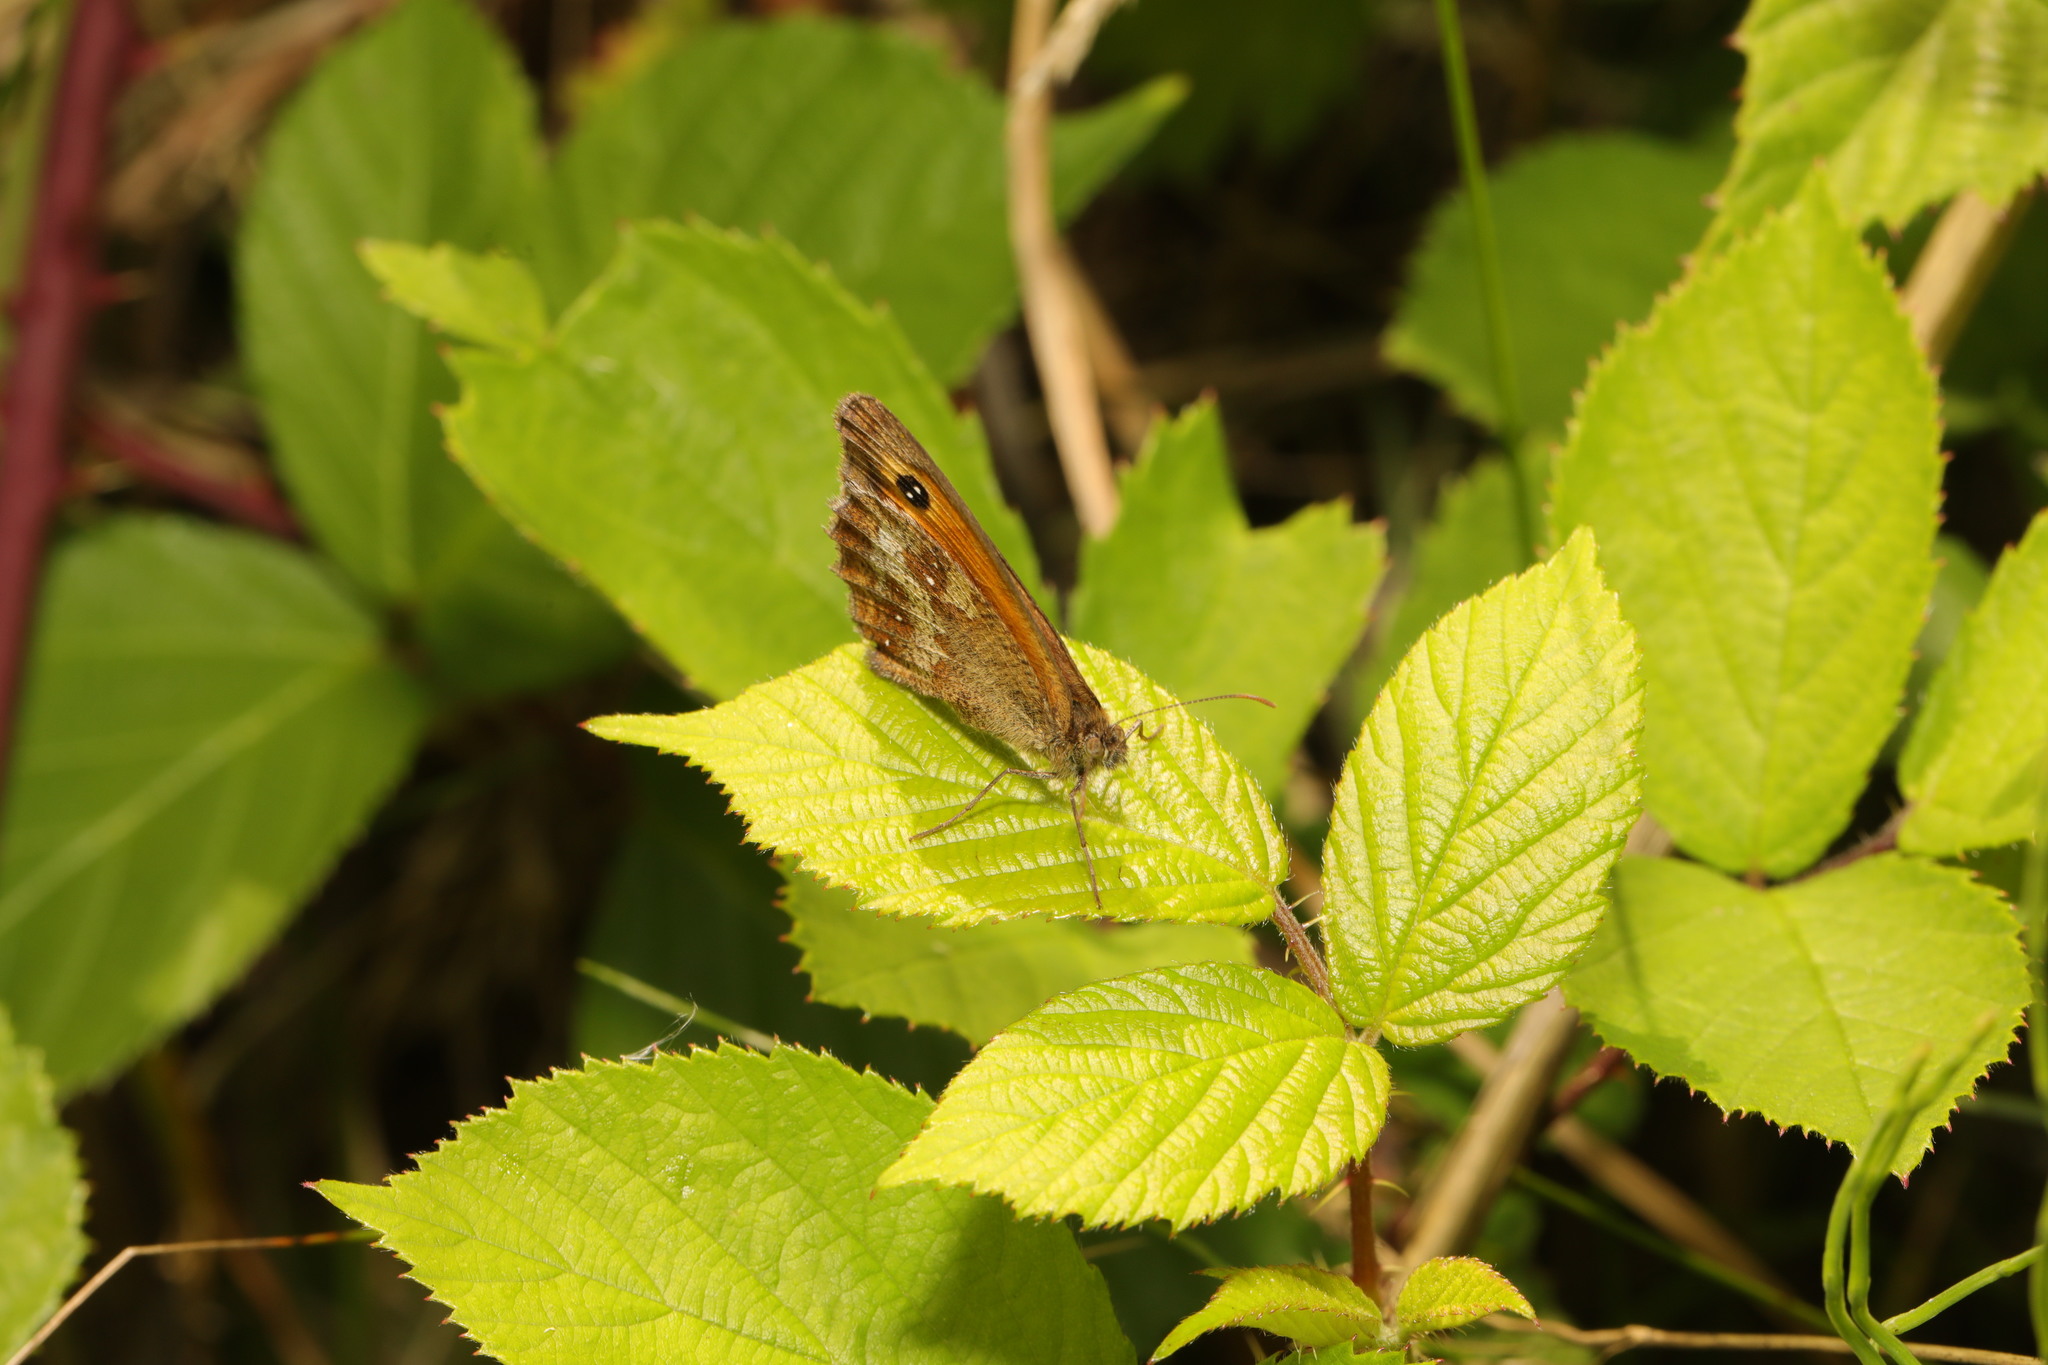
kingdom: Animalia
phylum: Arthropoda
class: Insecta
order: Lepidoptera
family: Nymphalidae
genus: Pyronia
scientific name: Pyronia tithonus
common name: Gatekeeper
